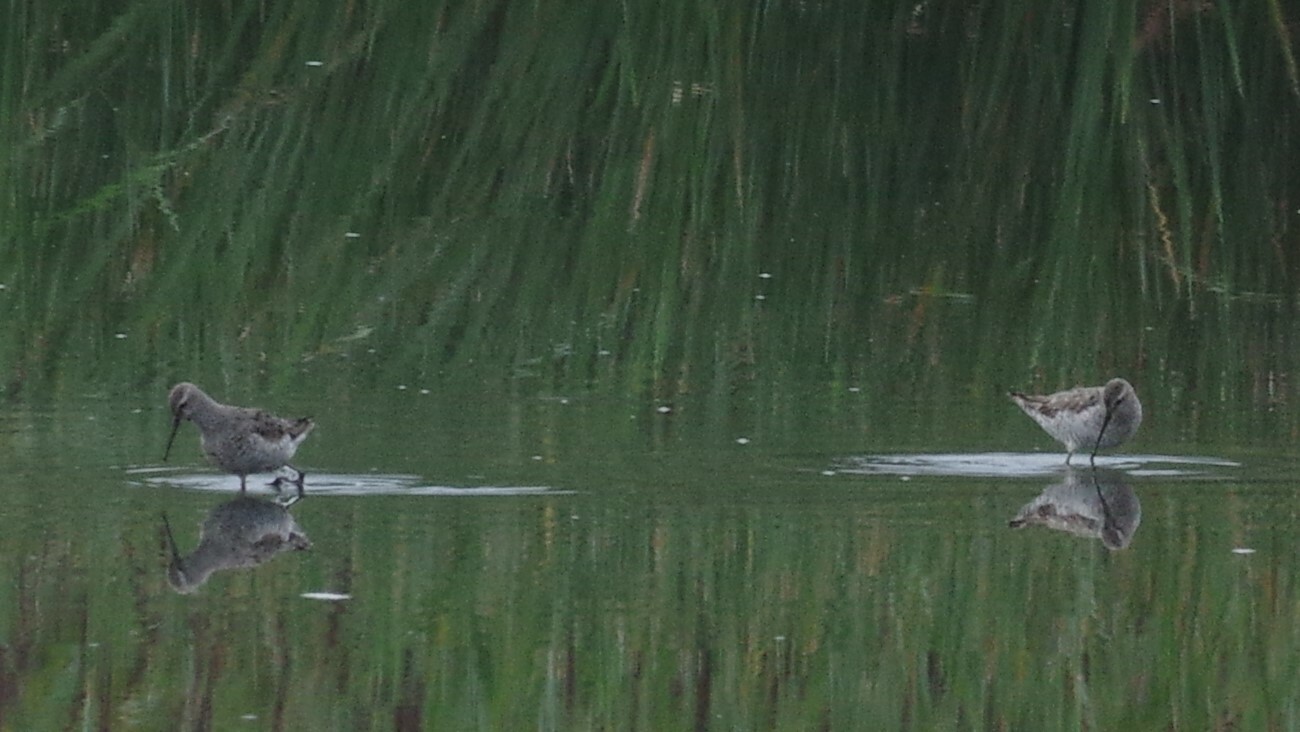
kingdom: Animalia
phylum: Chordata
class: Aves
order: Charadriiformes
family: Scolopacidae
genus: Calidris
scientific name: Calidris himantopus
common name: Stilt sandpiper
